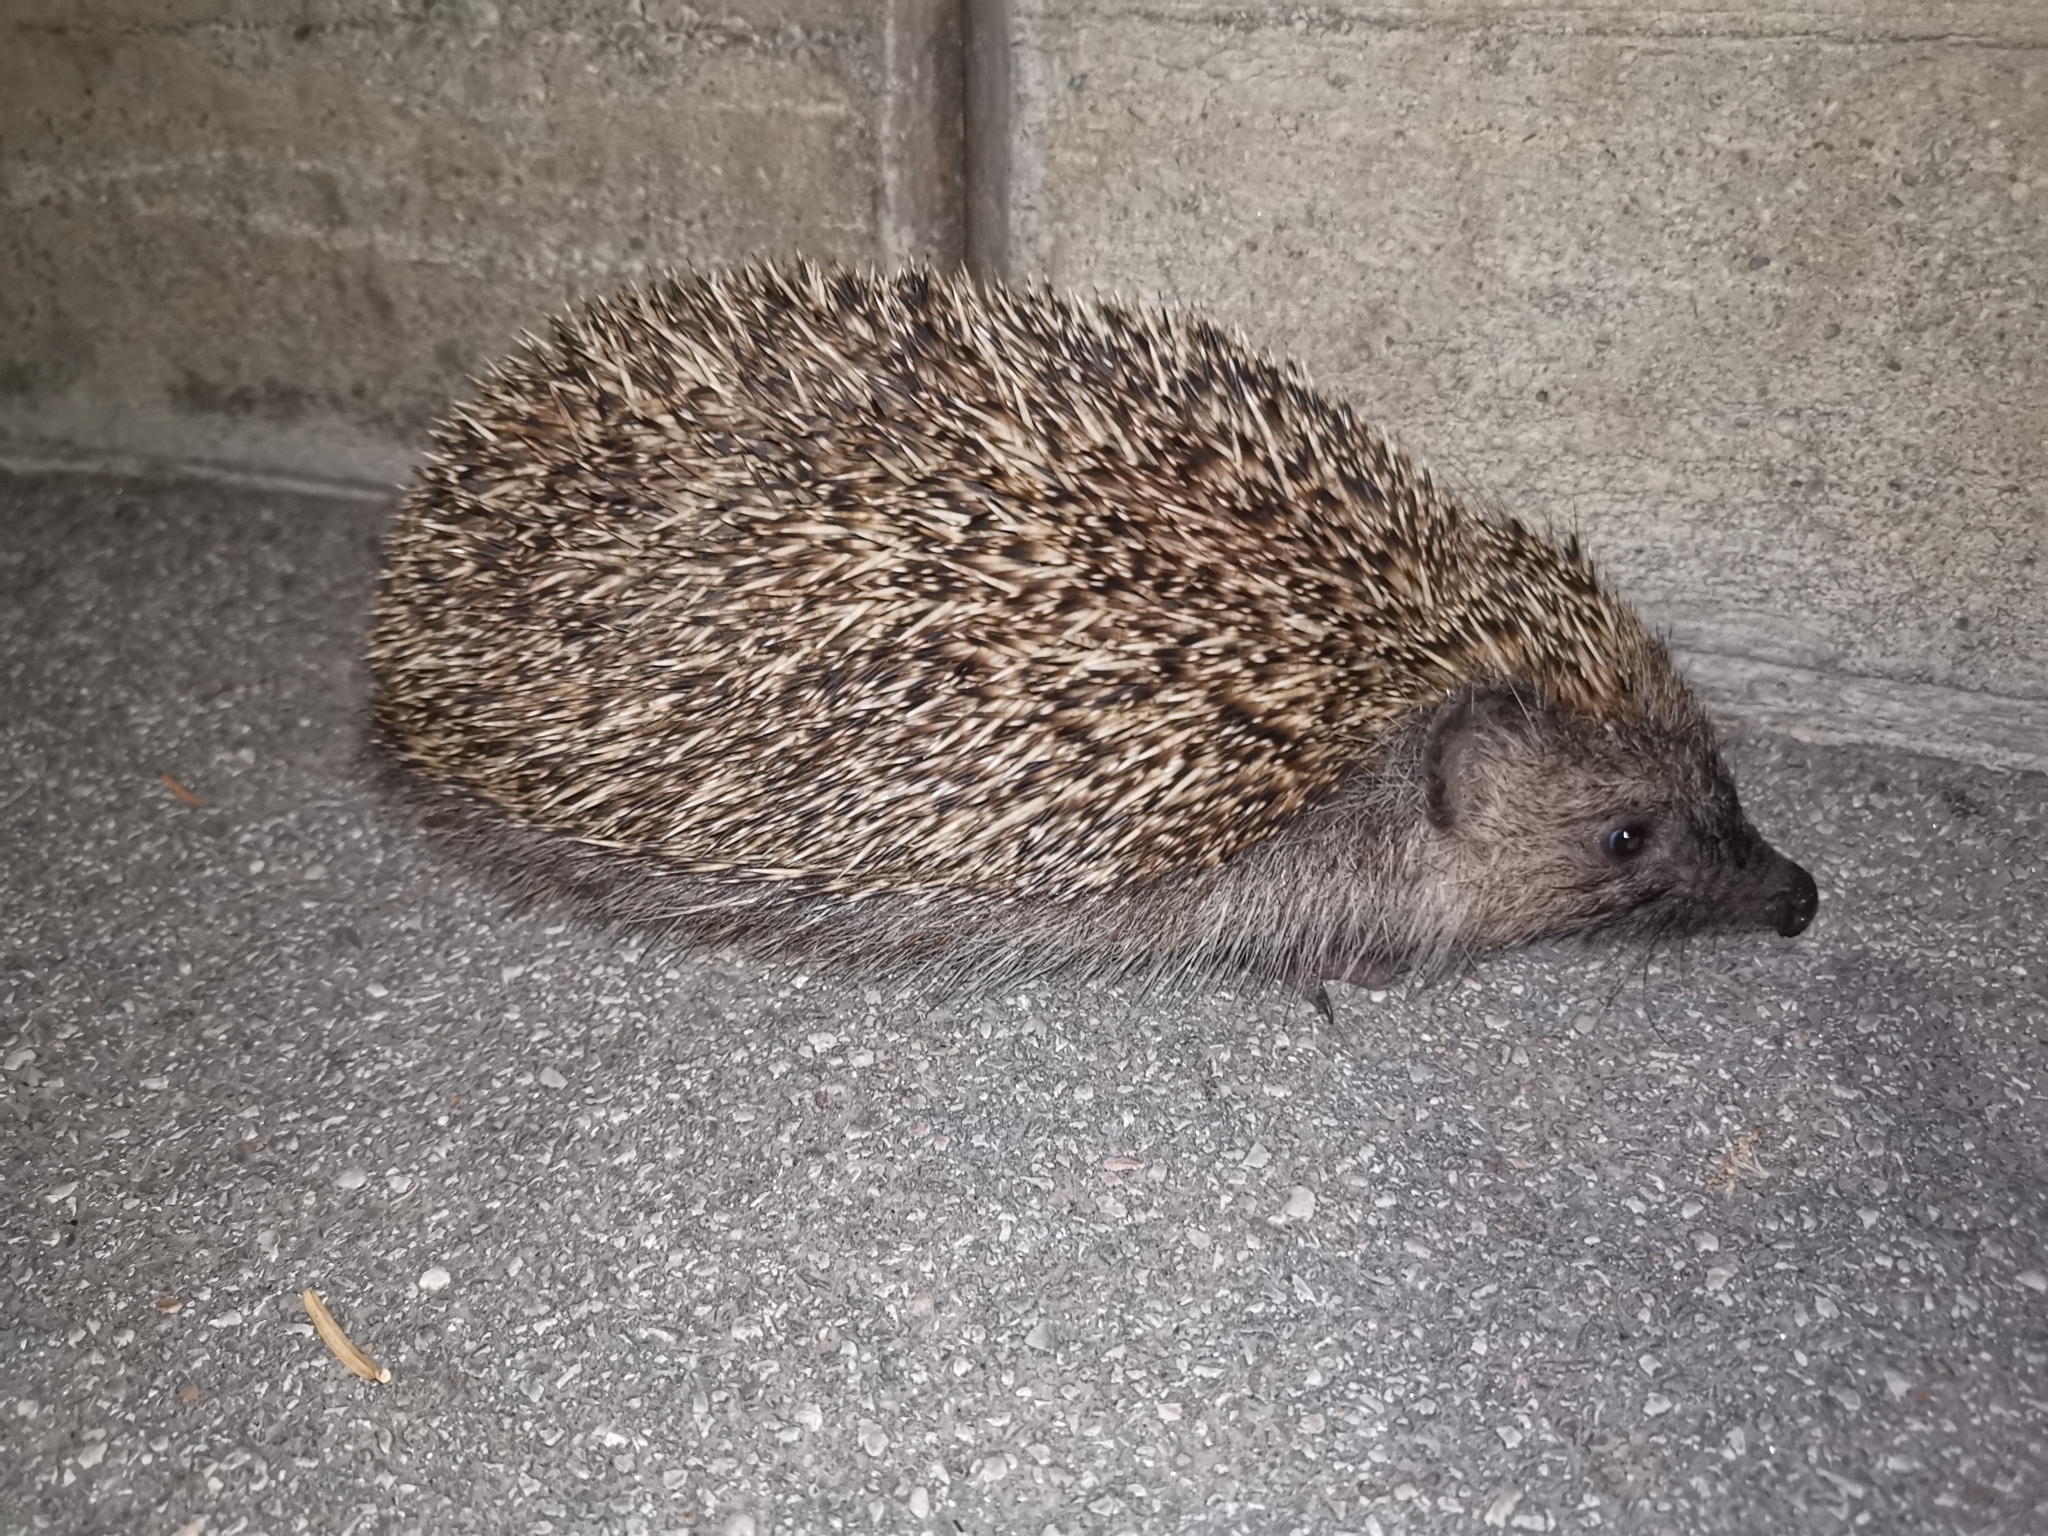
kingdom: Animalia
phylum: Chordata
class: Mammalia
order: Erinaceomorpha
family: Erinaceidae
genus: Erinaceus
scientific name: Erinaceus roumanicus
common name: Northern white-breasted hedgehog
